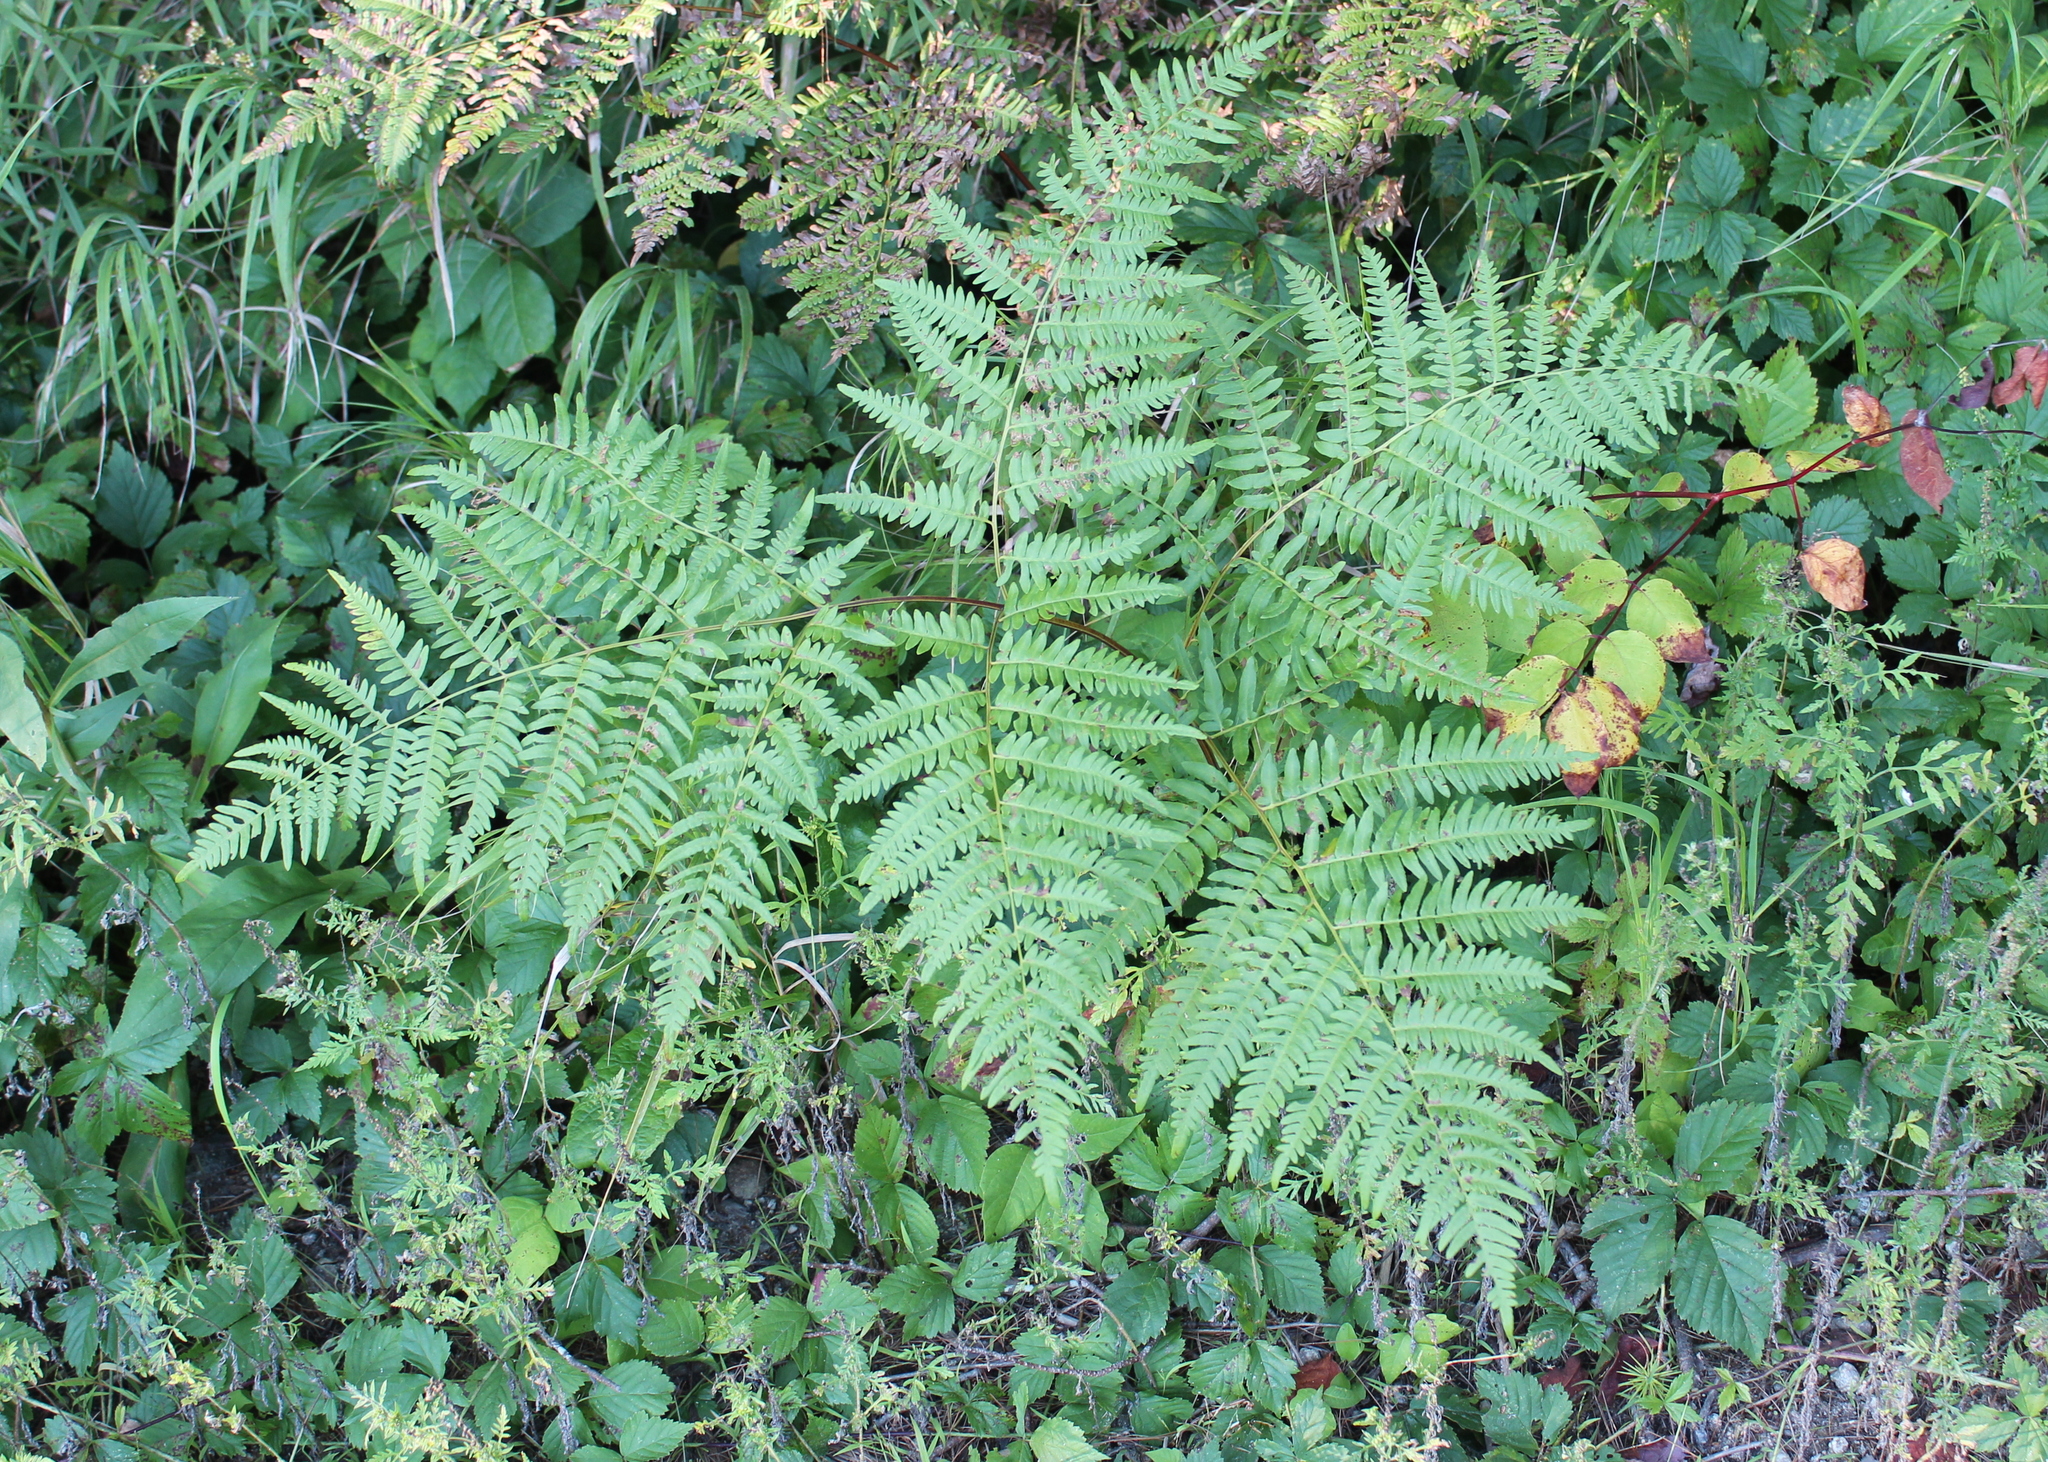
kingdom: Plantae
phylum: Tracheophyta
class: Polypodiopsida
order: Polypodiales
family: Dennstaedtiaceae
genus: Pteridium
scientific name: Pteridium aquilinum
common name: Bracken
